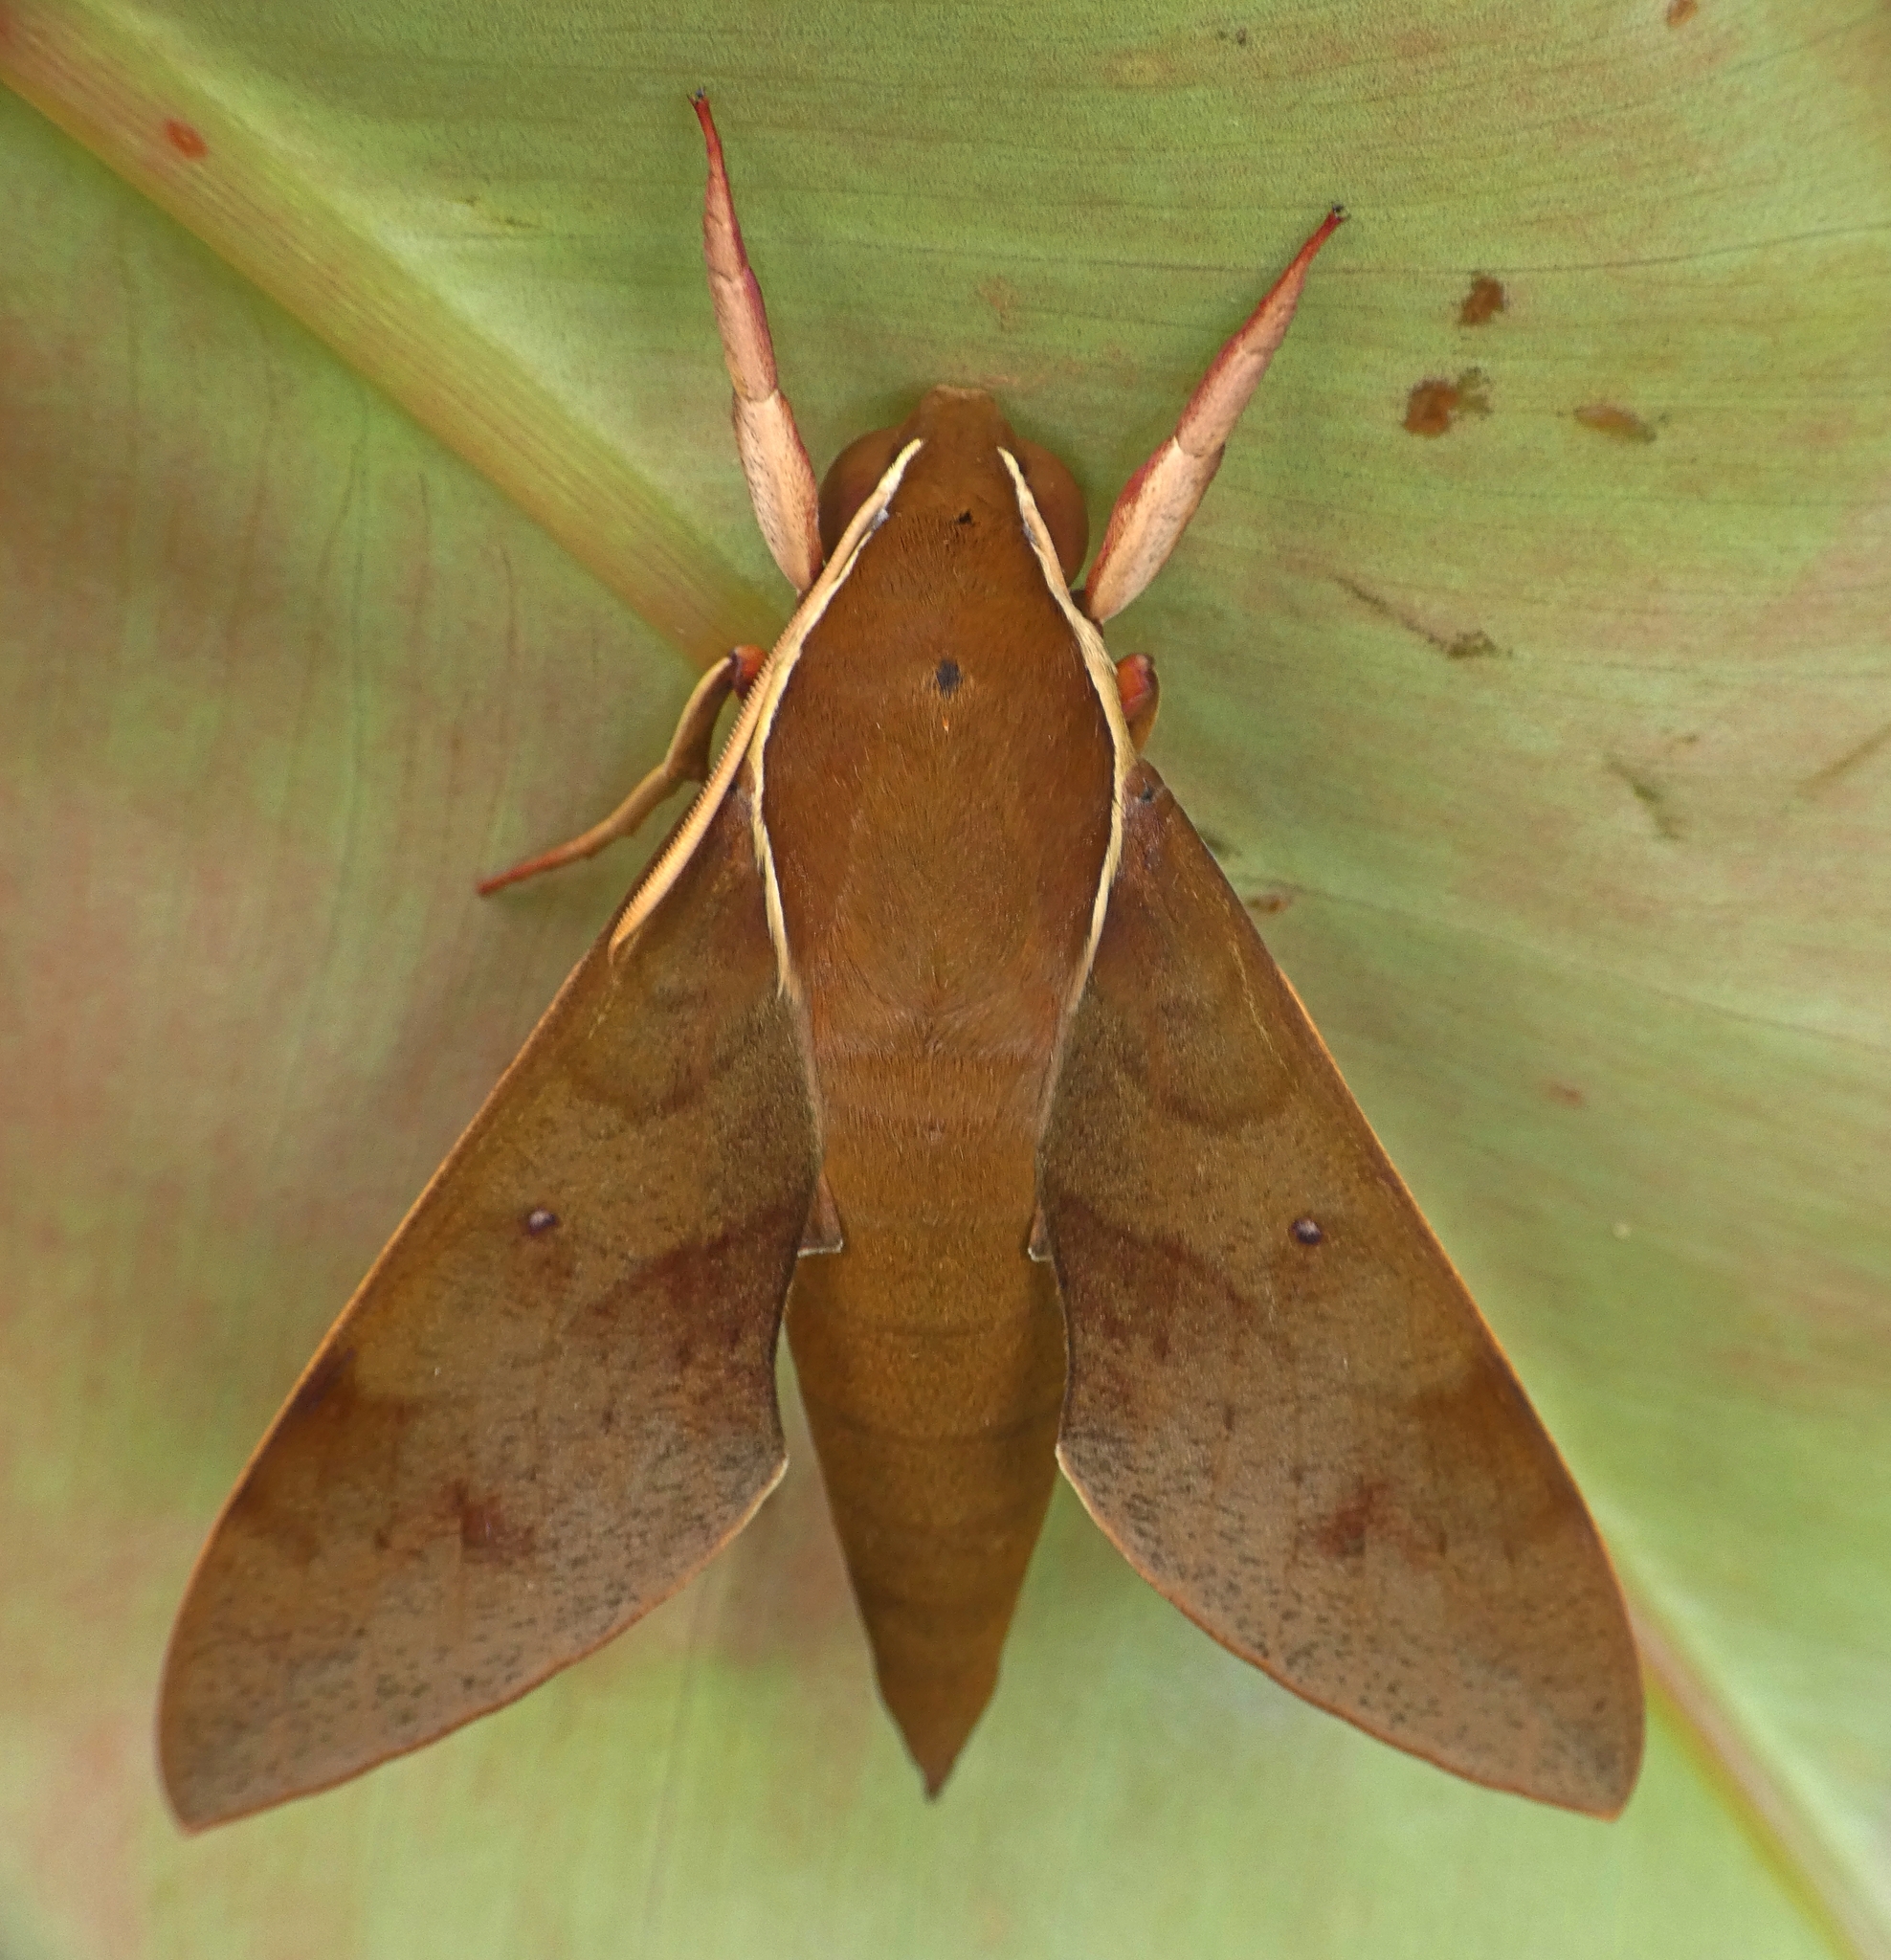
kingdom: Animalia
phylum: Arthropoda
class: Insecta
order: Lepidoptera
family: Sphingidae
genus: Gnathothlibus
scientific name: Gnathothlibus eras
